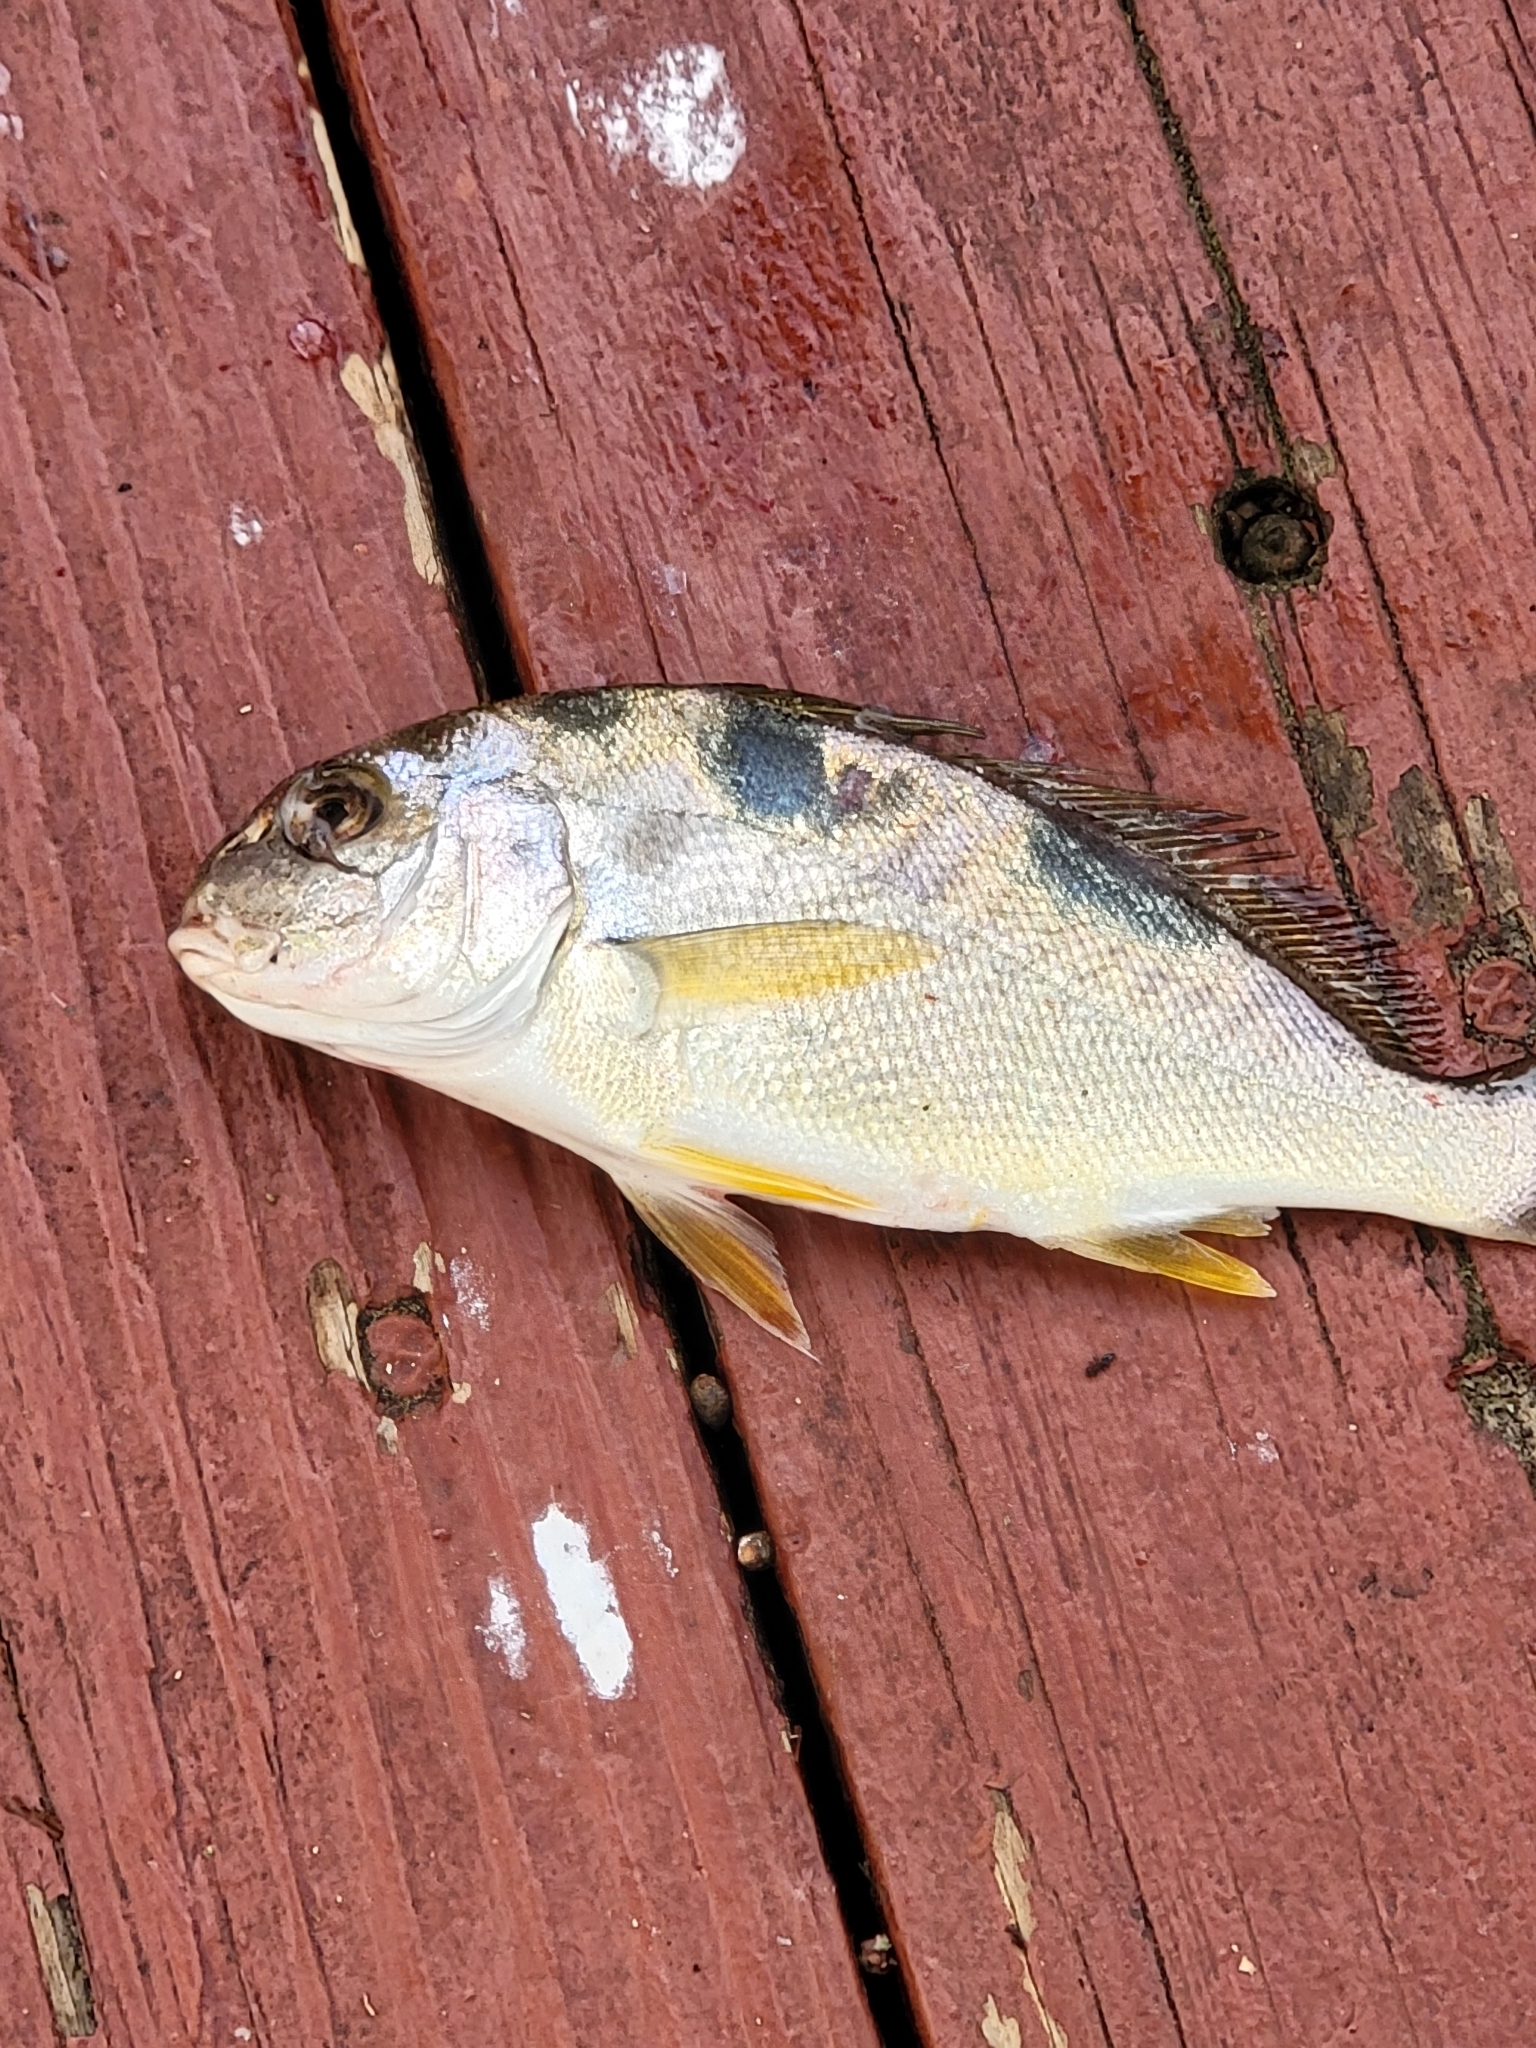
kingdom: Animalia
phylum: Chordata
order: Perciformes
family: Sciaenidae
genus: Leiostomus
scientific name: Leiostomus xanthurus
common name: Spot
